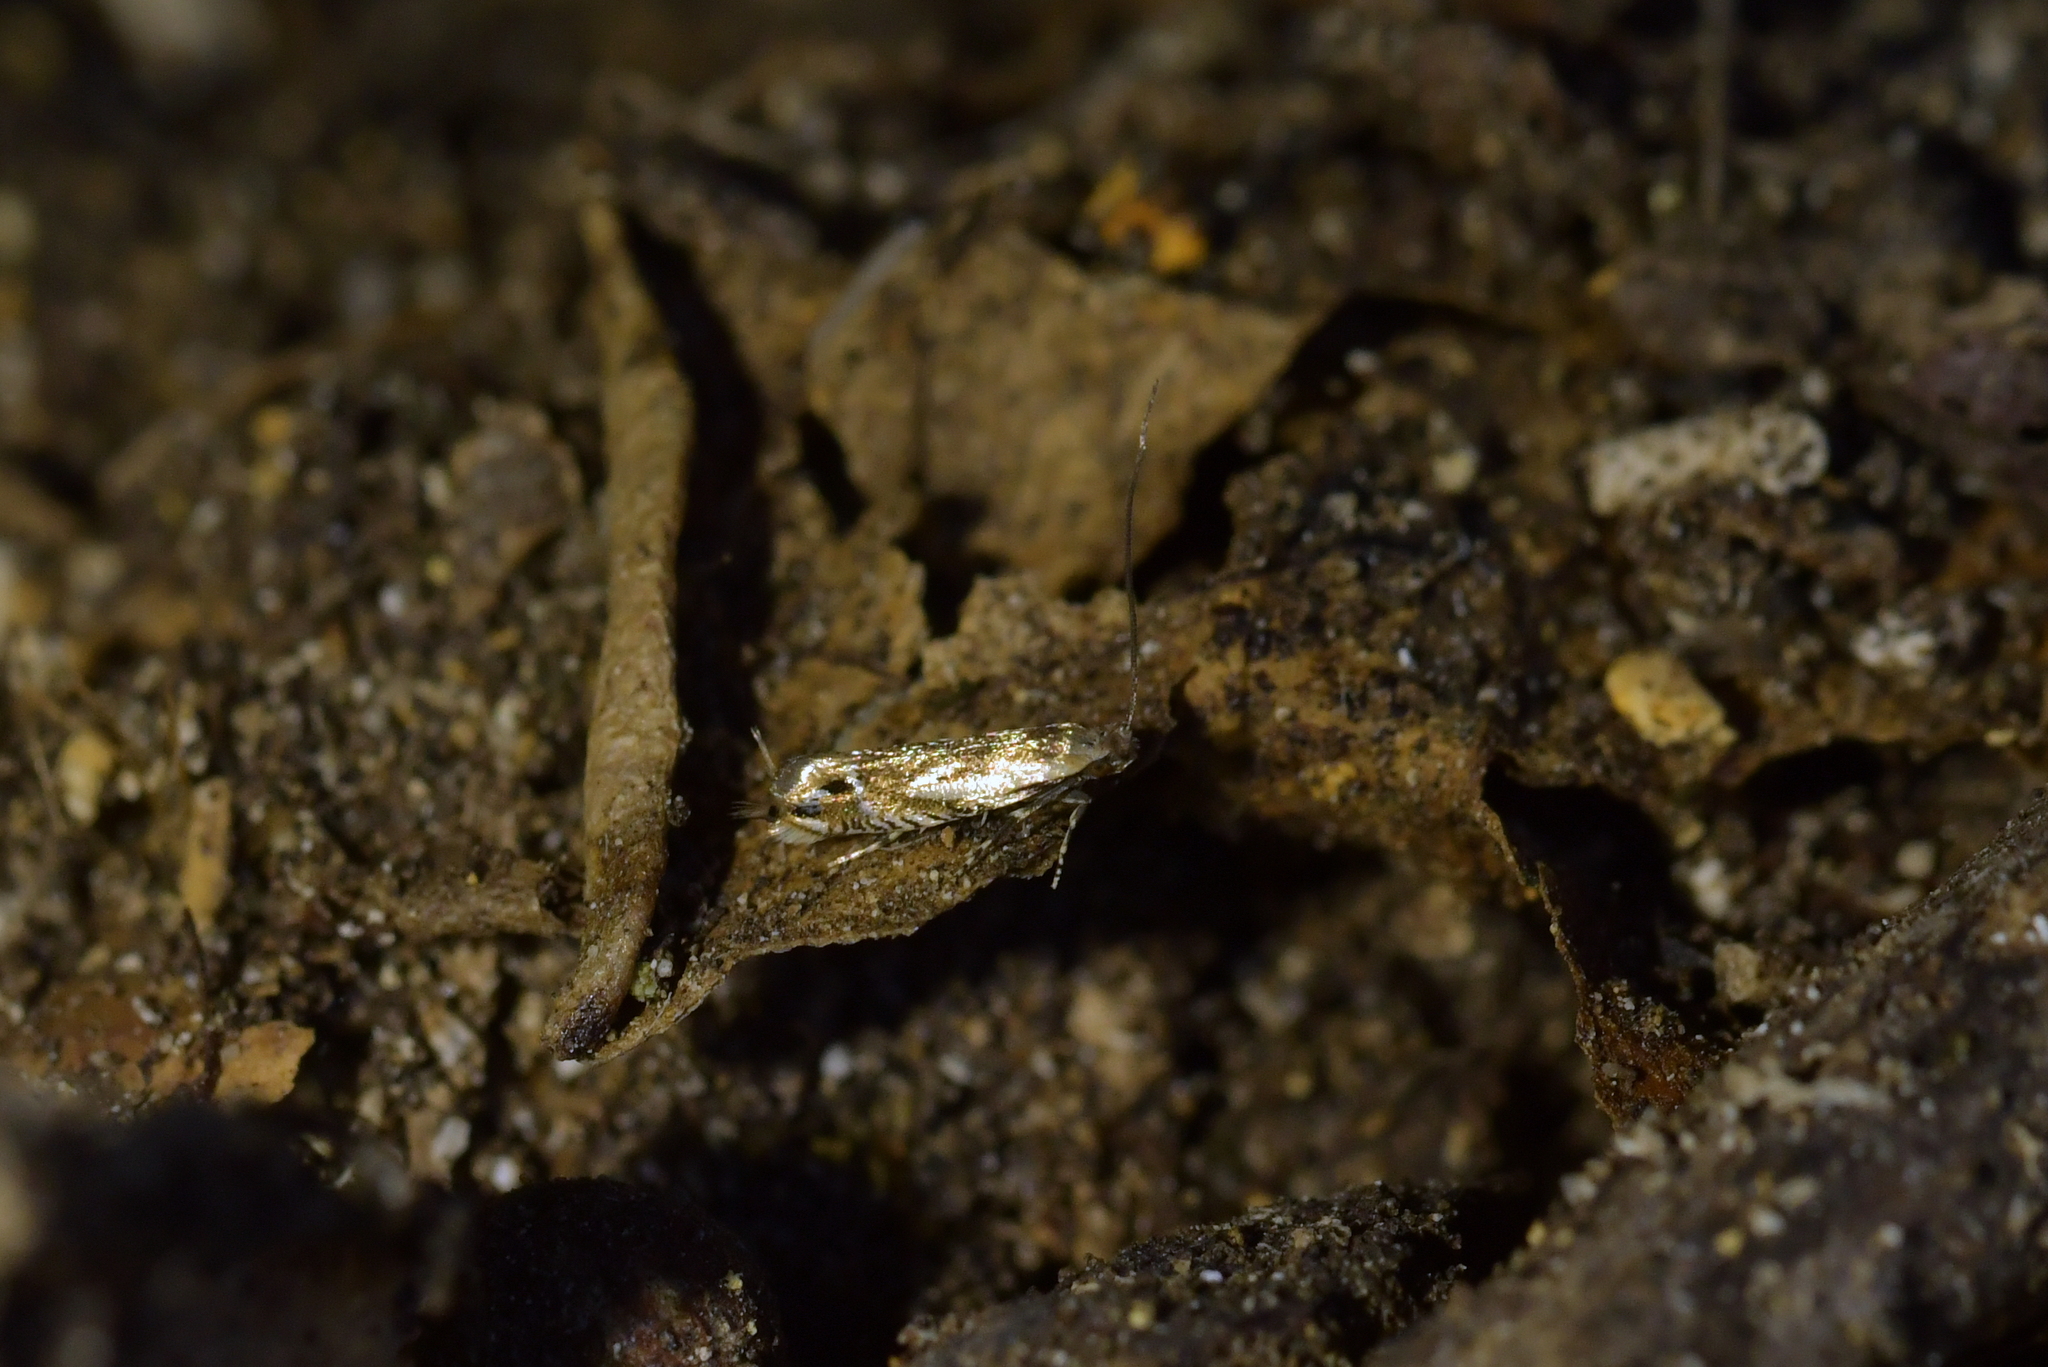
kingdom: Animalia
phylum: Arthropoda
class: Insecta
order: Lepidoptera
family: Tineidae
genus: Erechthias
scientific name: Erechthias decoranda
